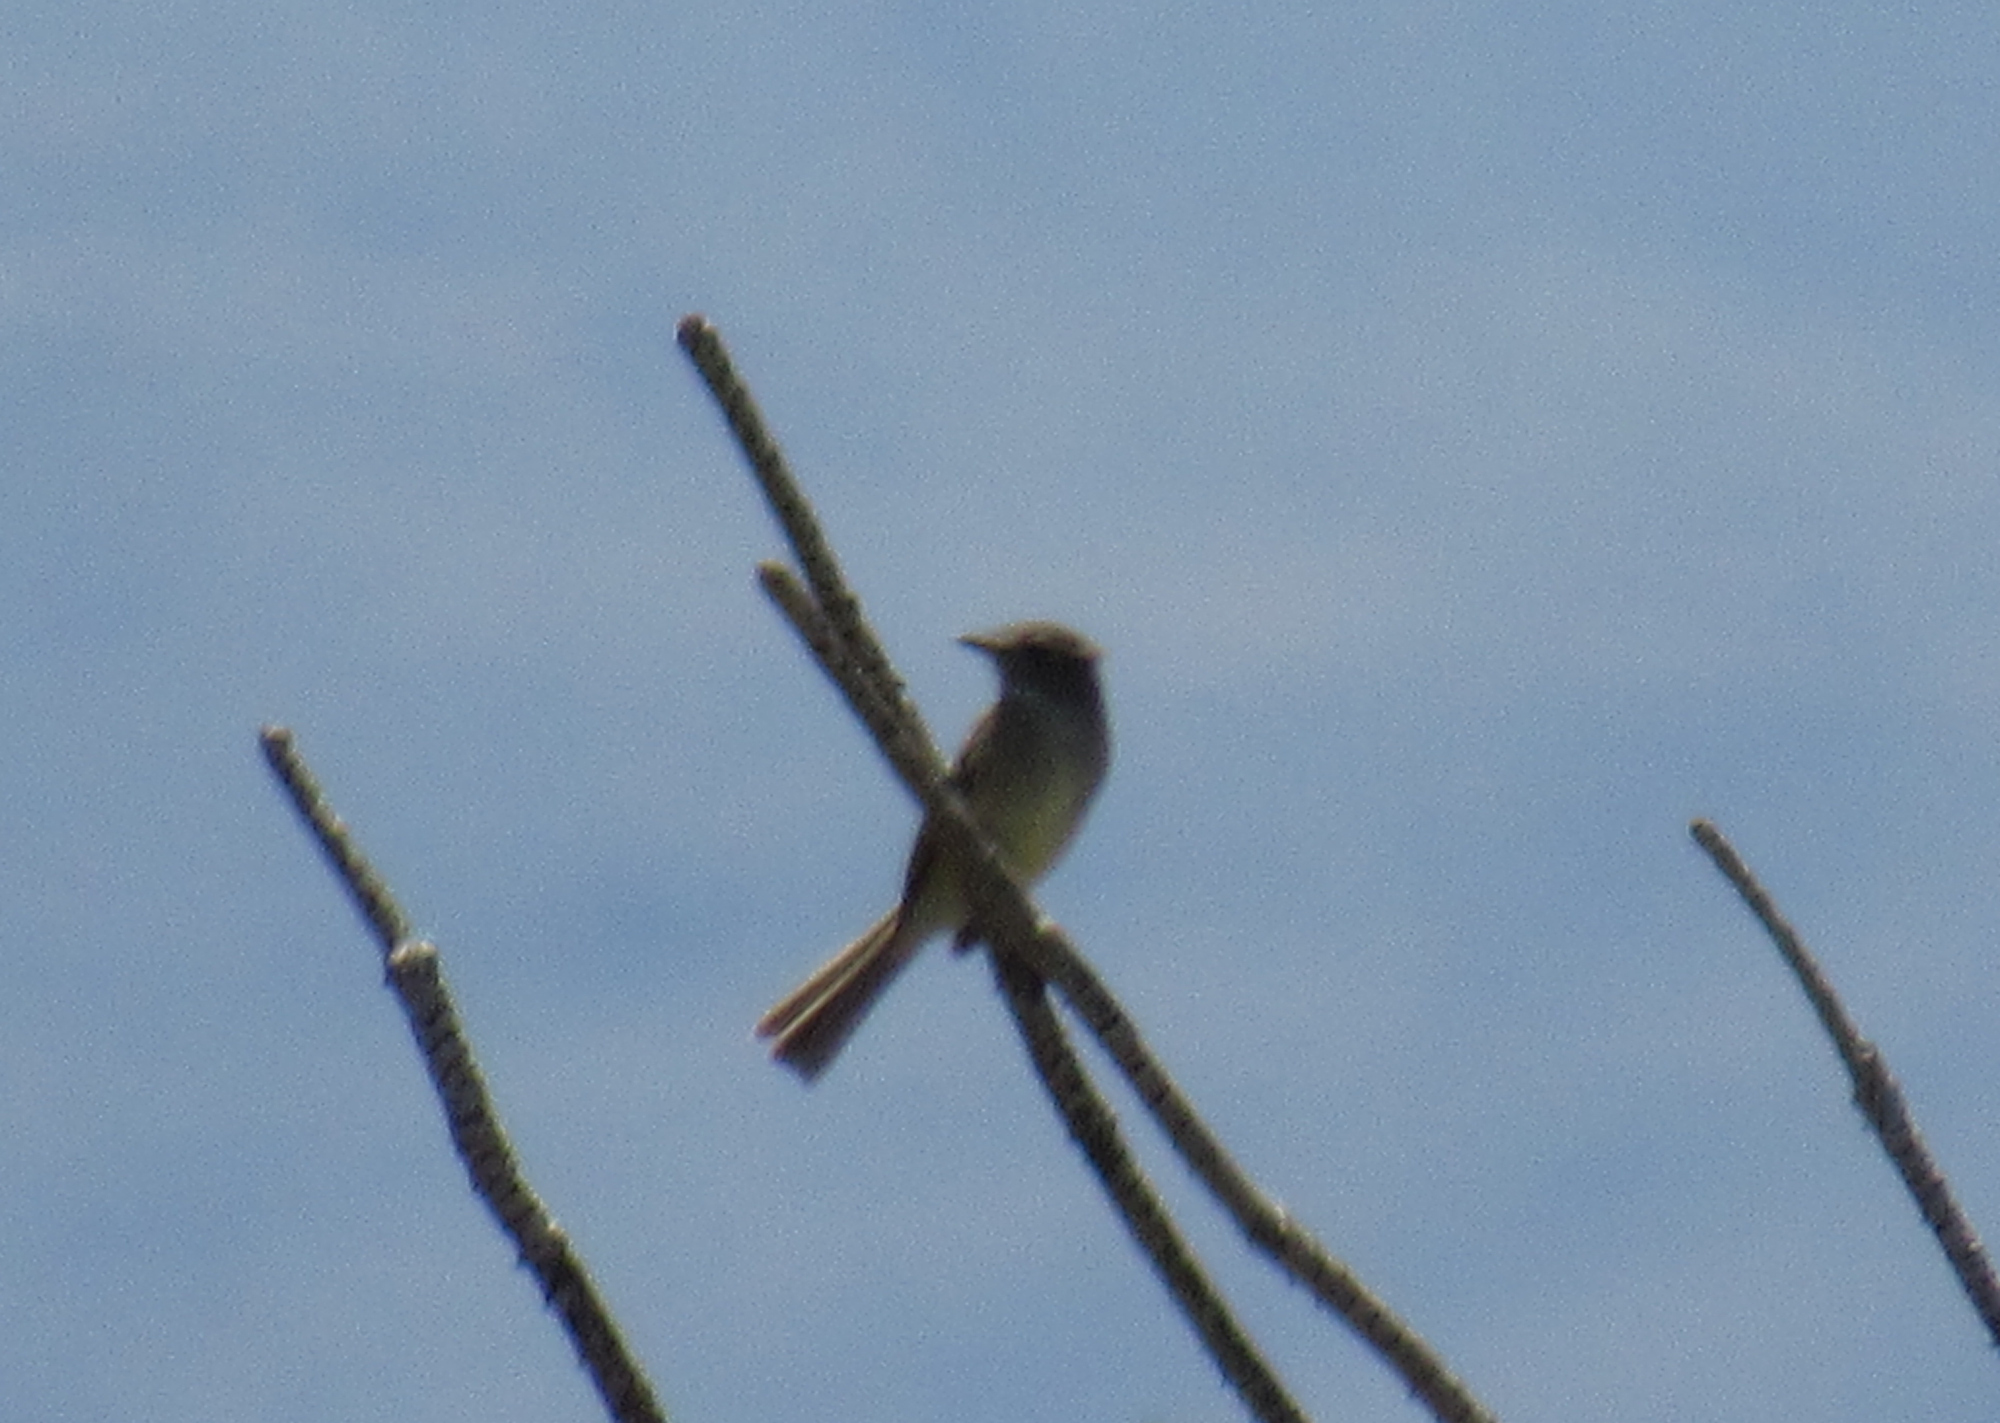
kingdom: Animalia
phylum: Chordata
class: Aves
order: Passeriformes
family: Tyrannidae
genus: Myiarchus
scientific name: Myiarchus cinerascens
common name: Ash-throated flycatcher
